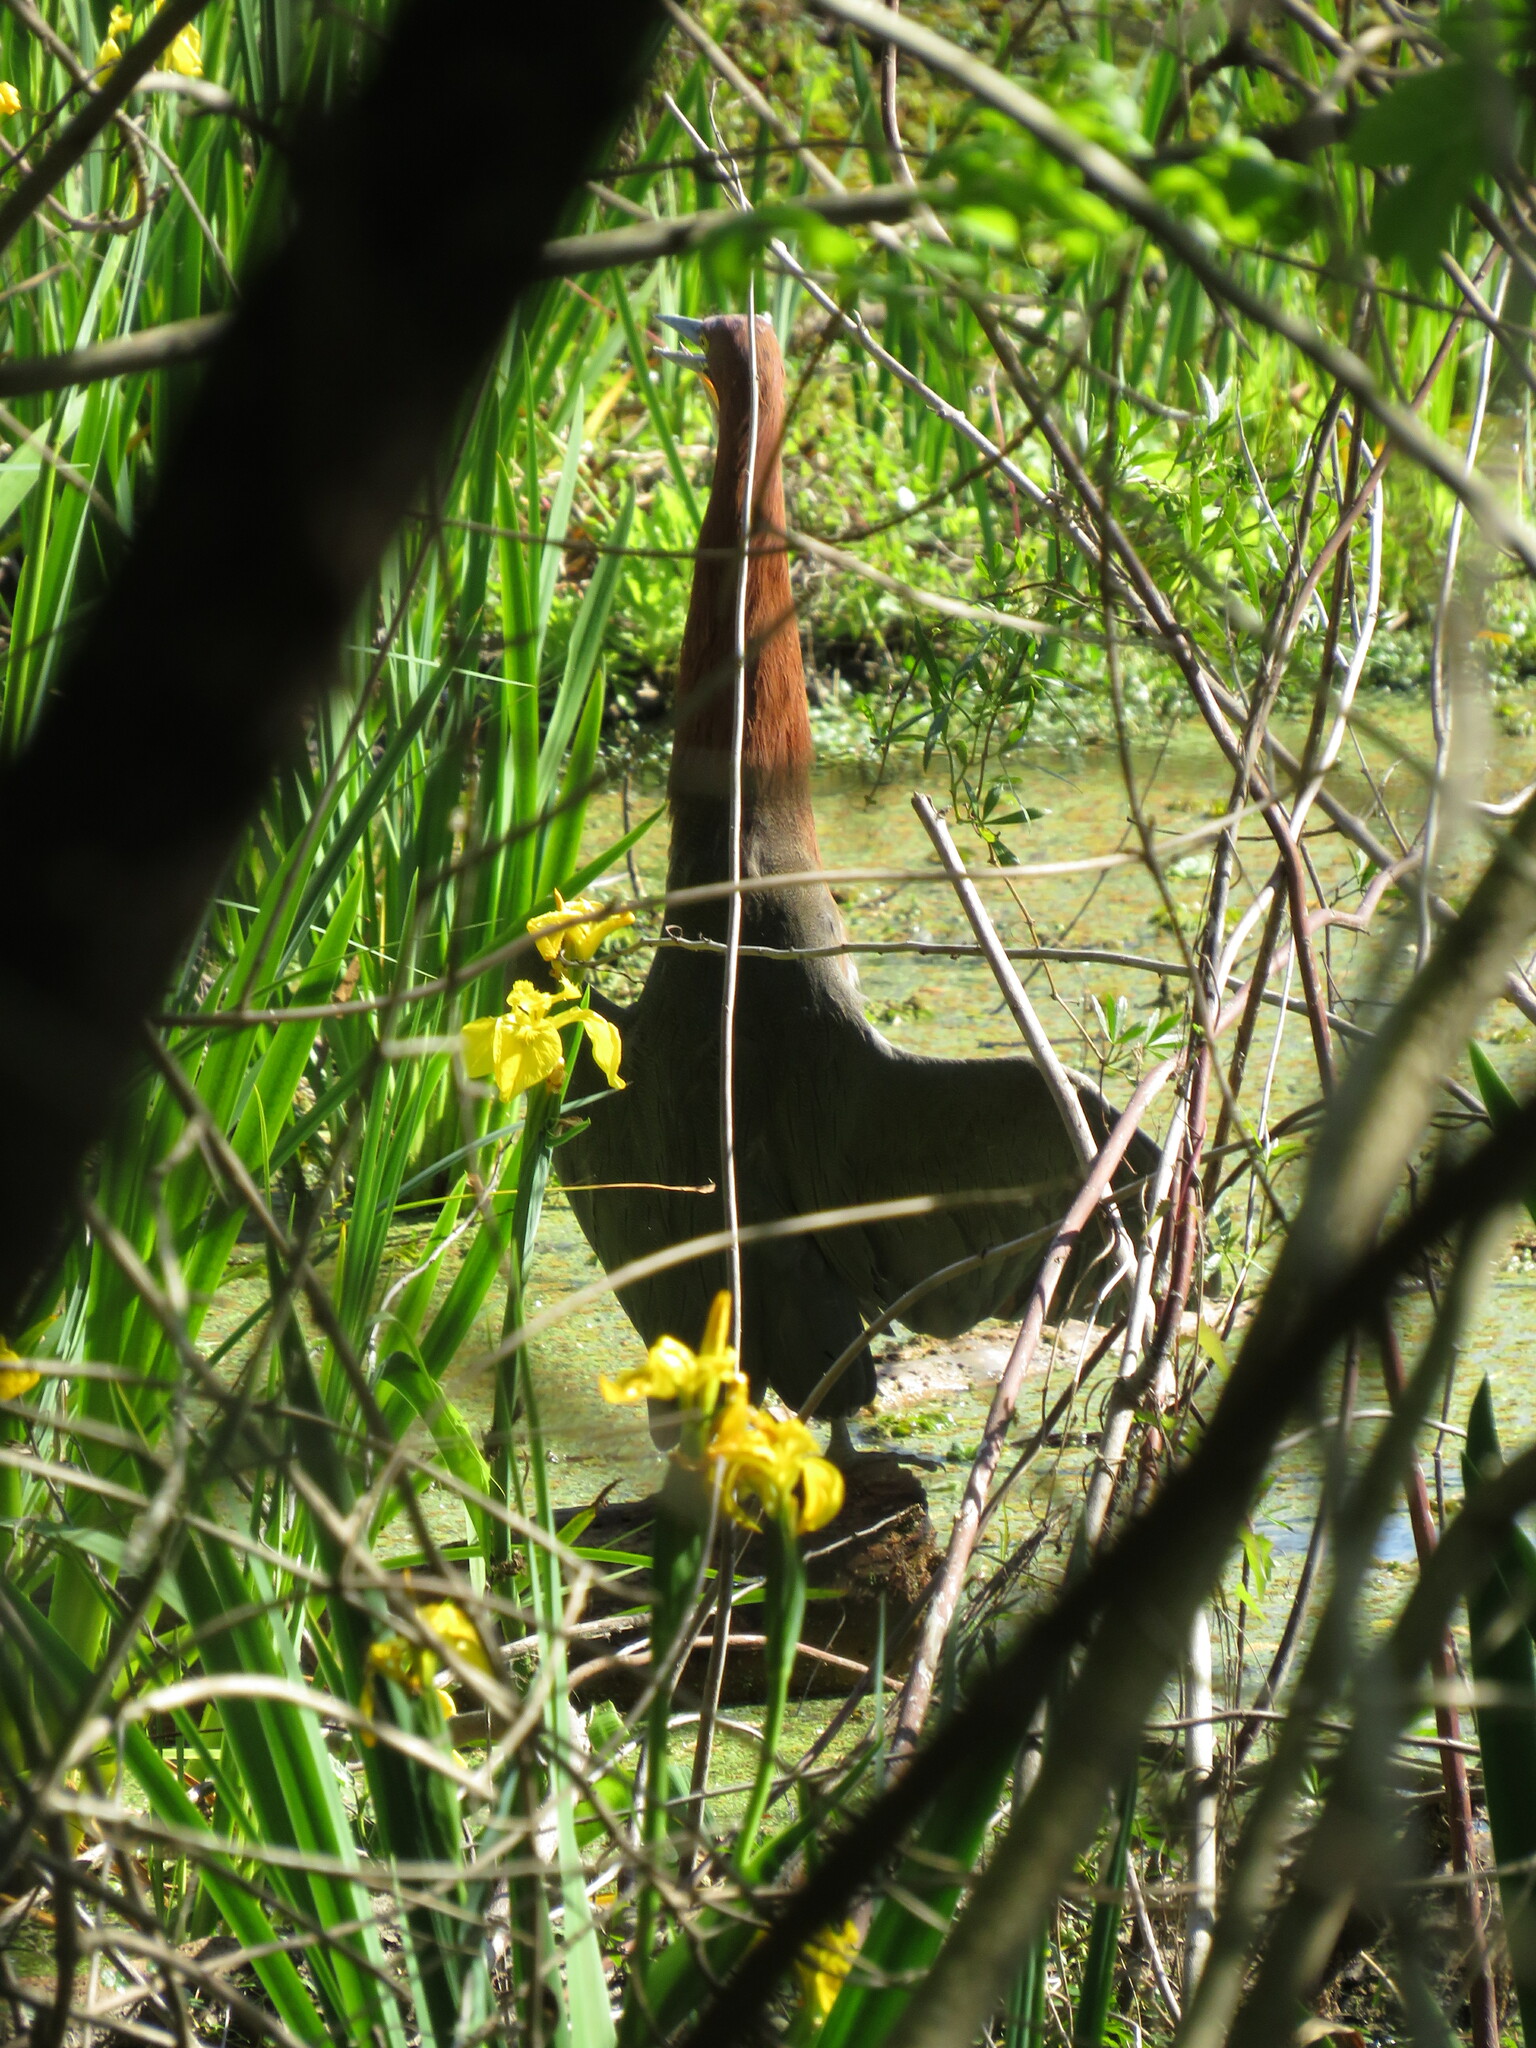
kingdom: Animalia
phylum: Chordata
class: Aves
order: Pelecaniformes
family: Ardeidae
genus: Tigrisoma
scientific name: Tigrisoma lineatum
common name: Rufescent tiger-heron
